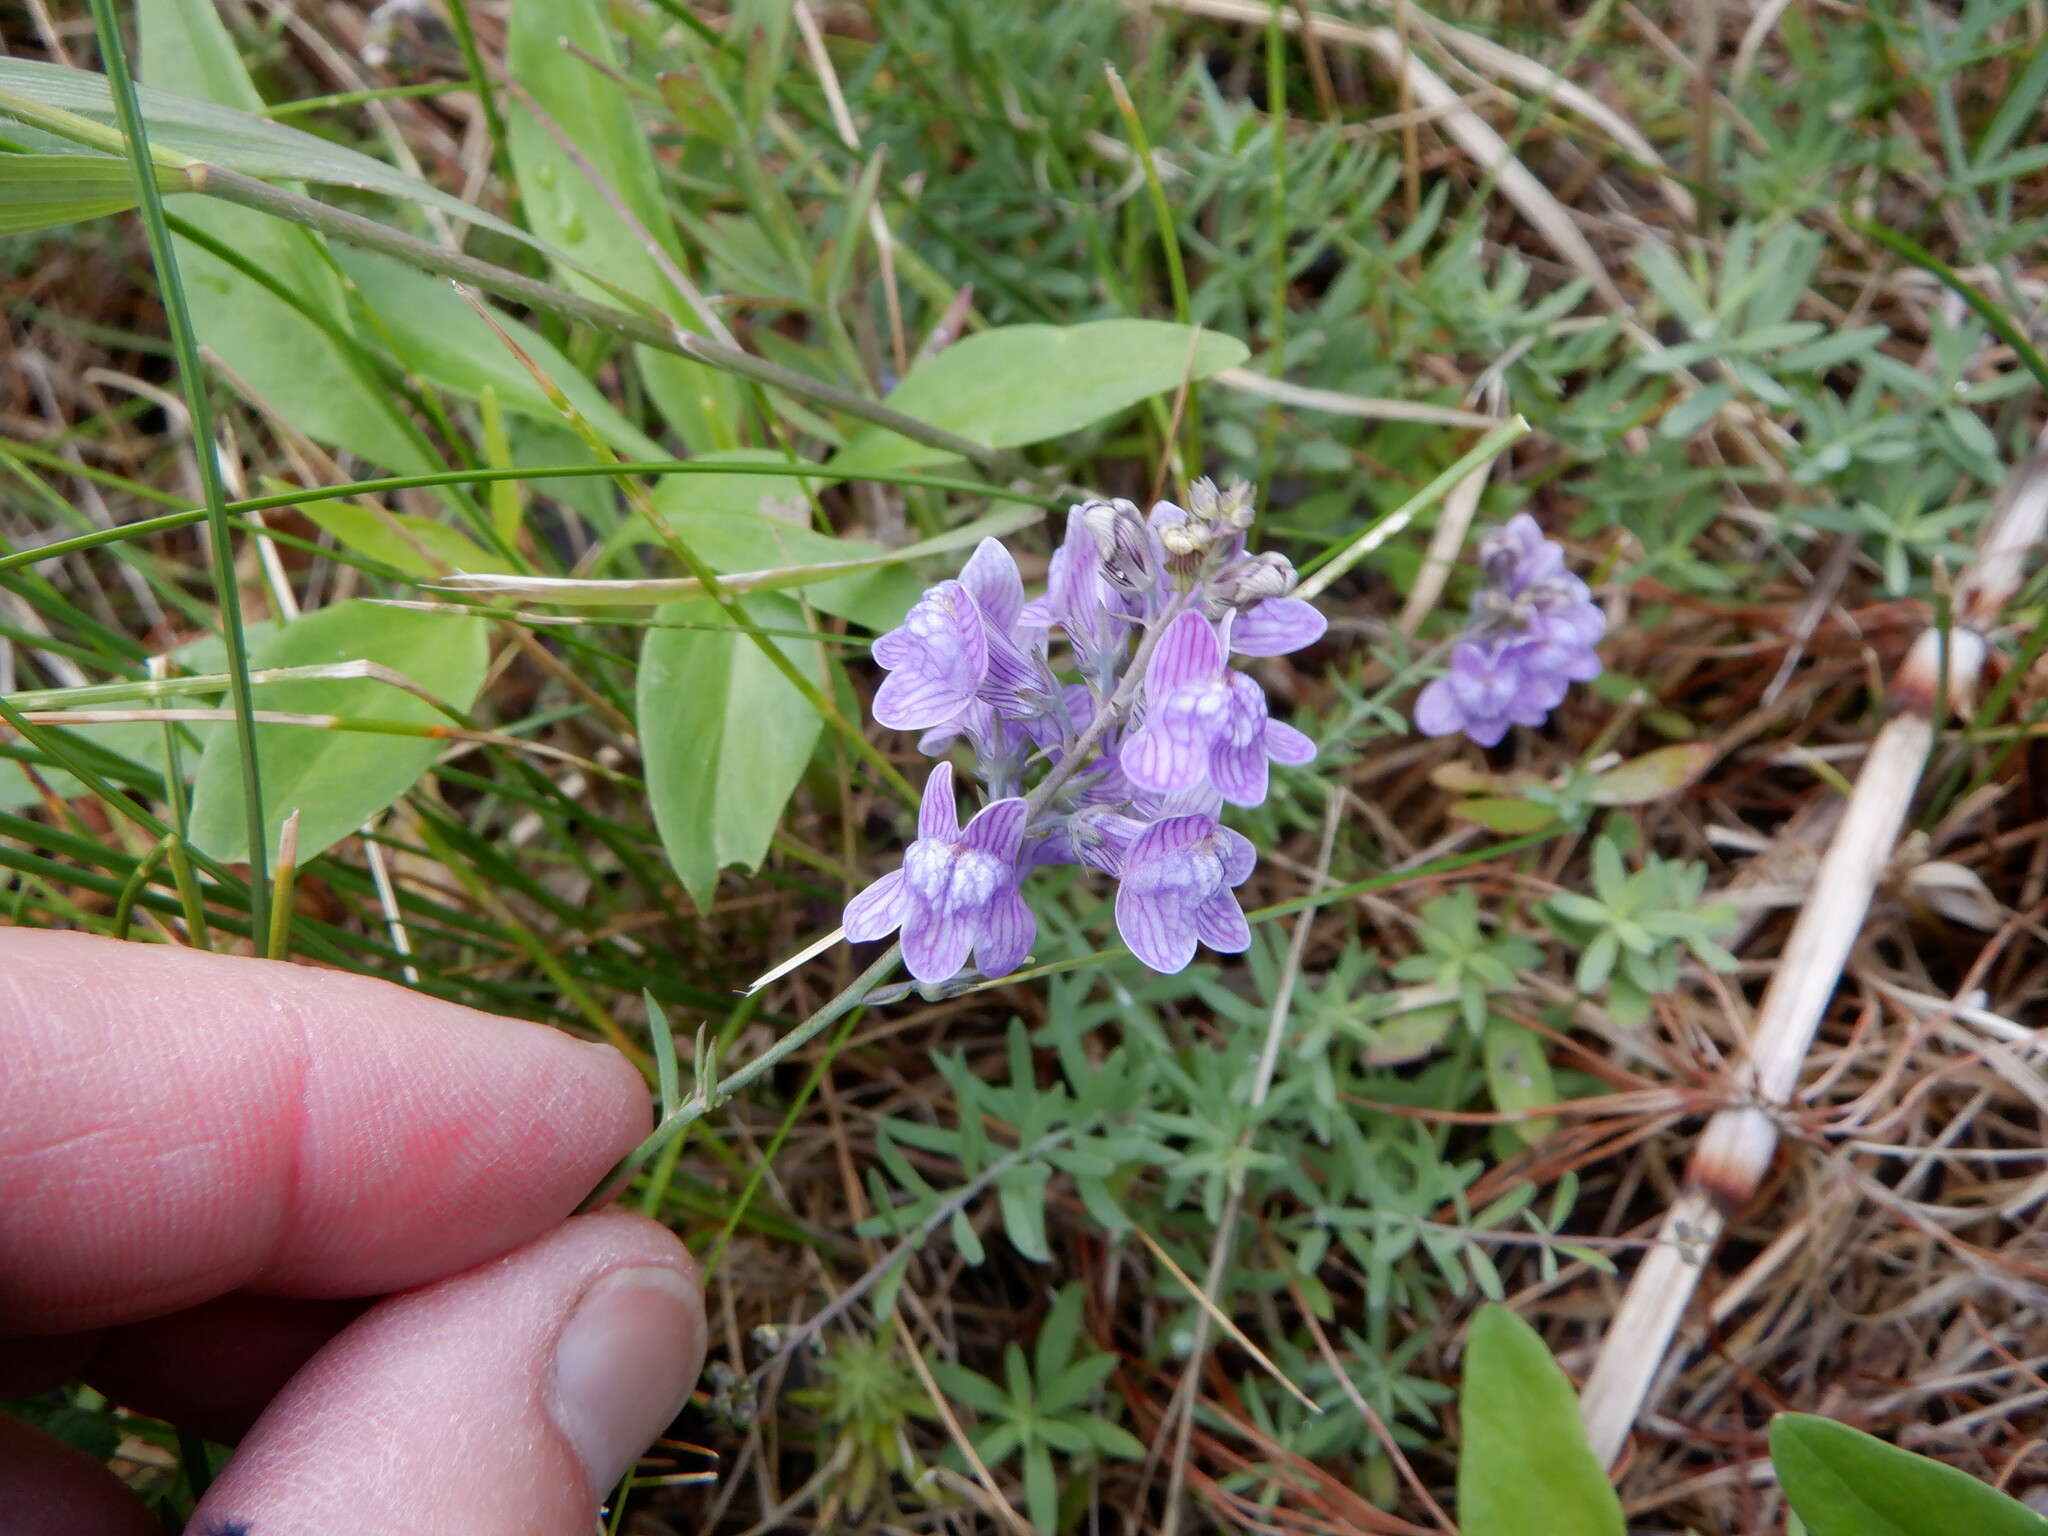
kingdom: Plantae
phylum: Tracheophyta
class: Magnoliopsida
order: Lamiales
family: Plantaginaceae
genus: Linaria
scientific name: Linaria repens
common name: Pale toadflax
